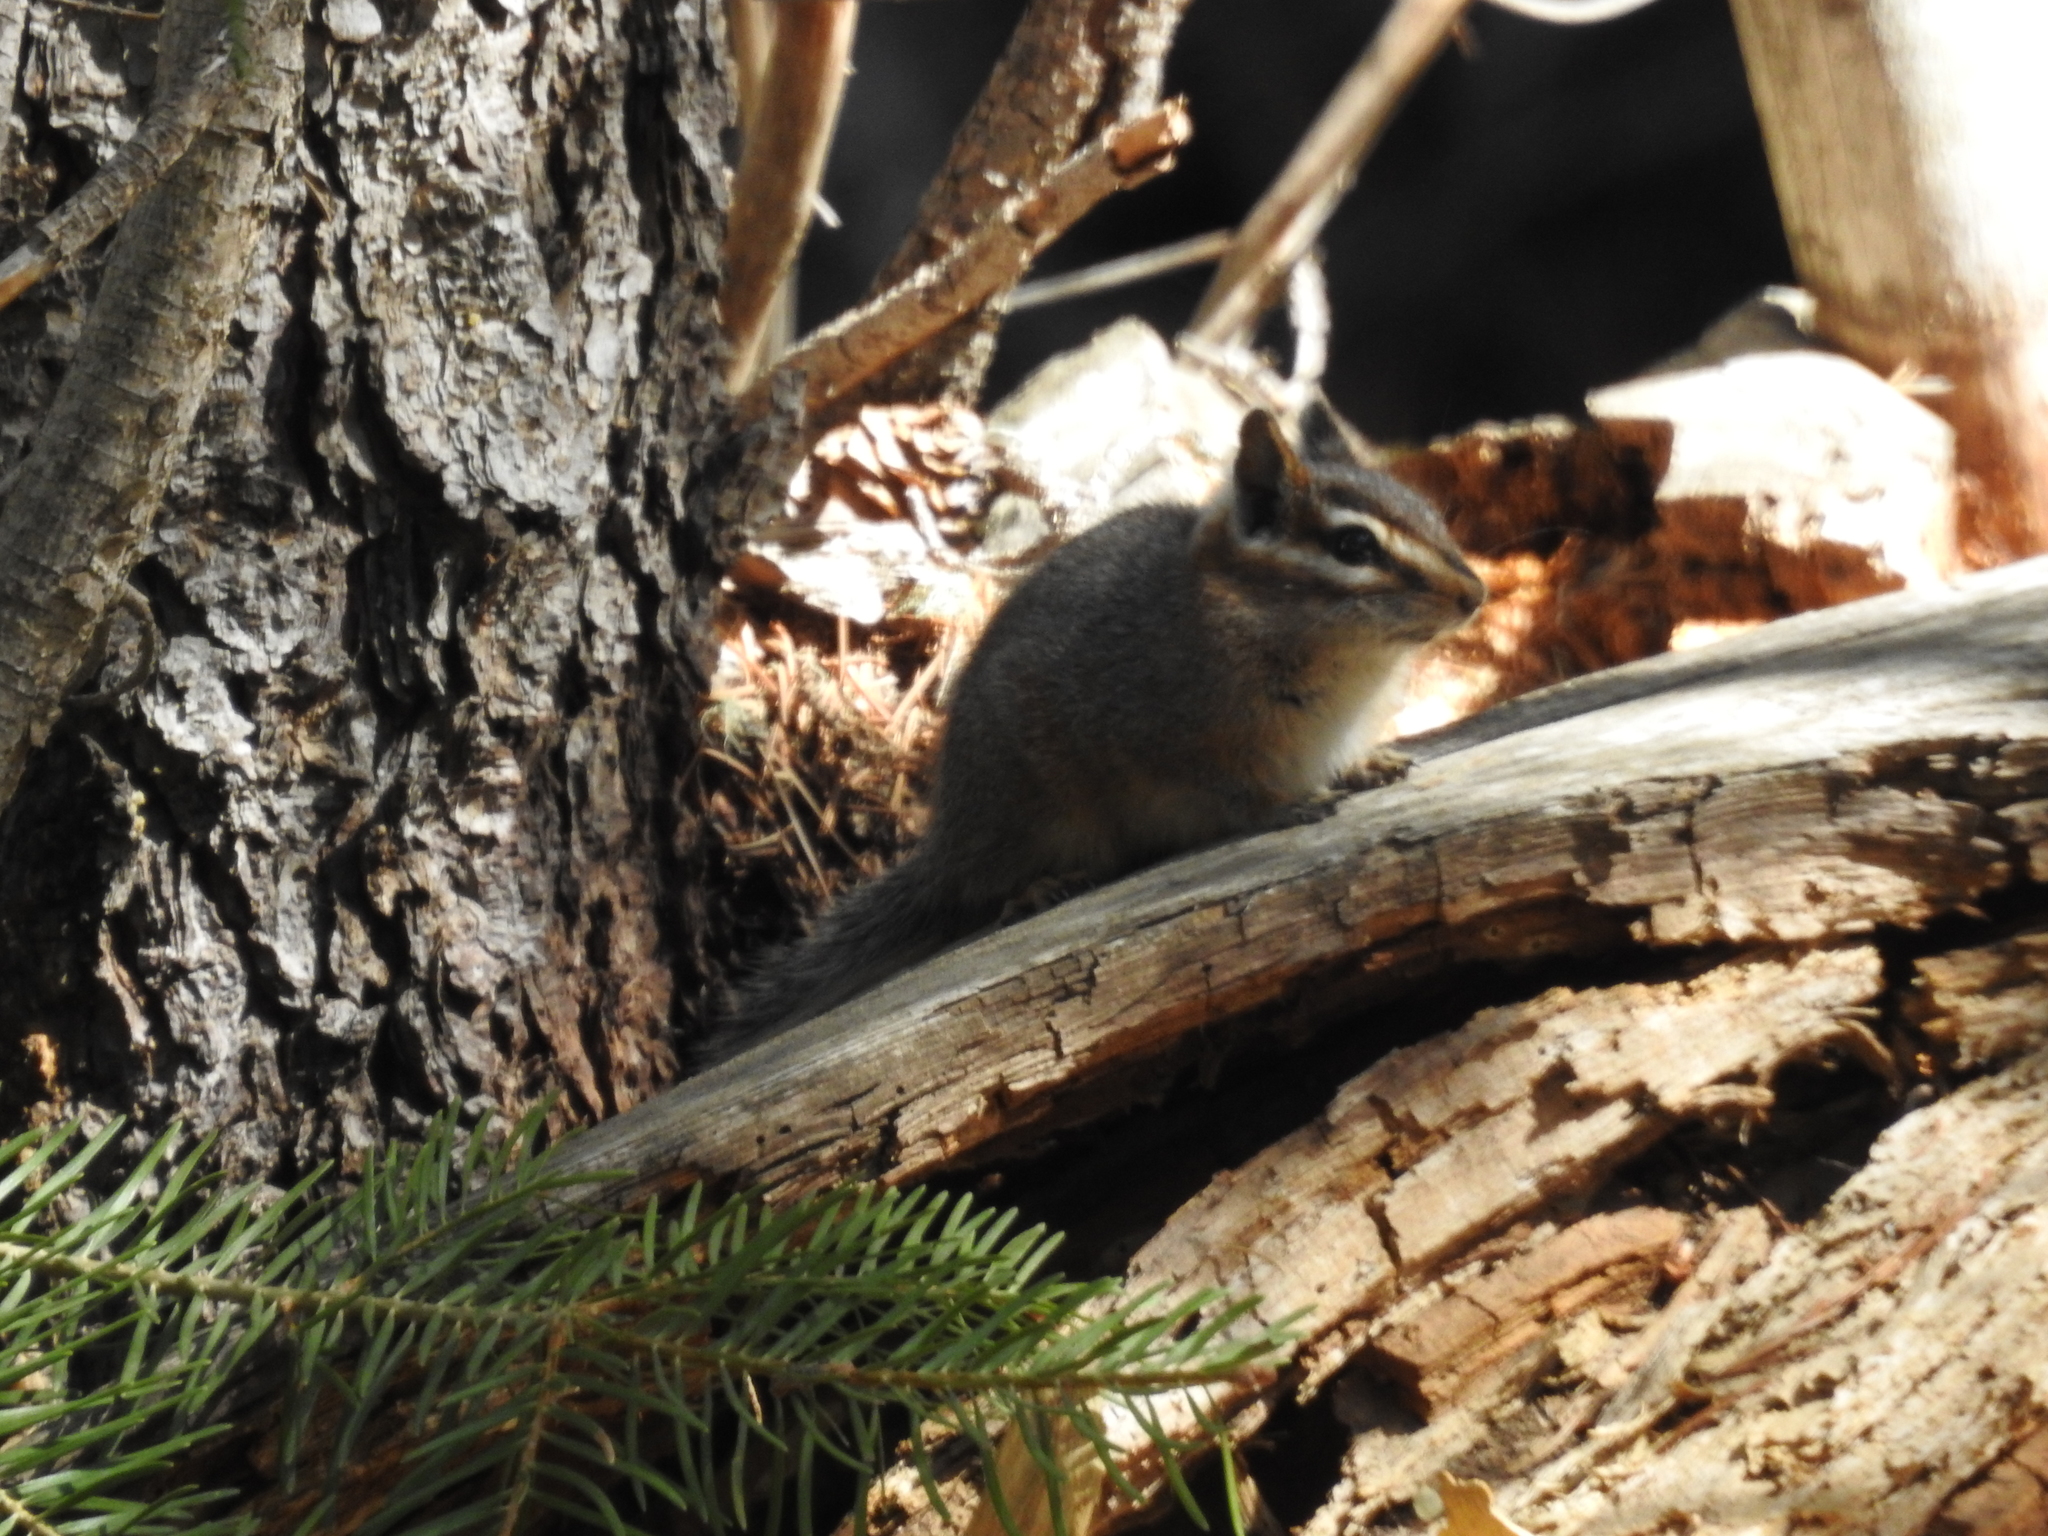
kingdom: Animalia
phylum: Chordata
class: Mammalia
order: Rodentia
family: Sciuridae
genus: Tamias
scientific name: Tamias dorsalis
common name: Cliff chipmunk
